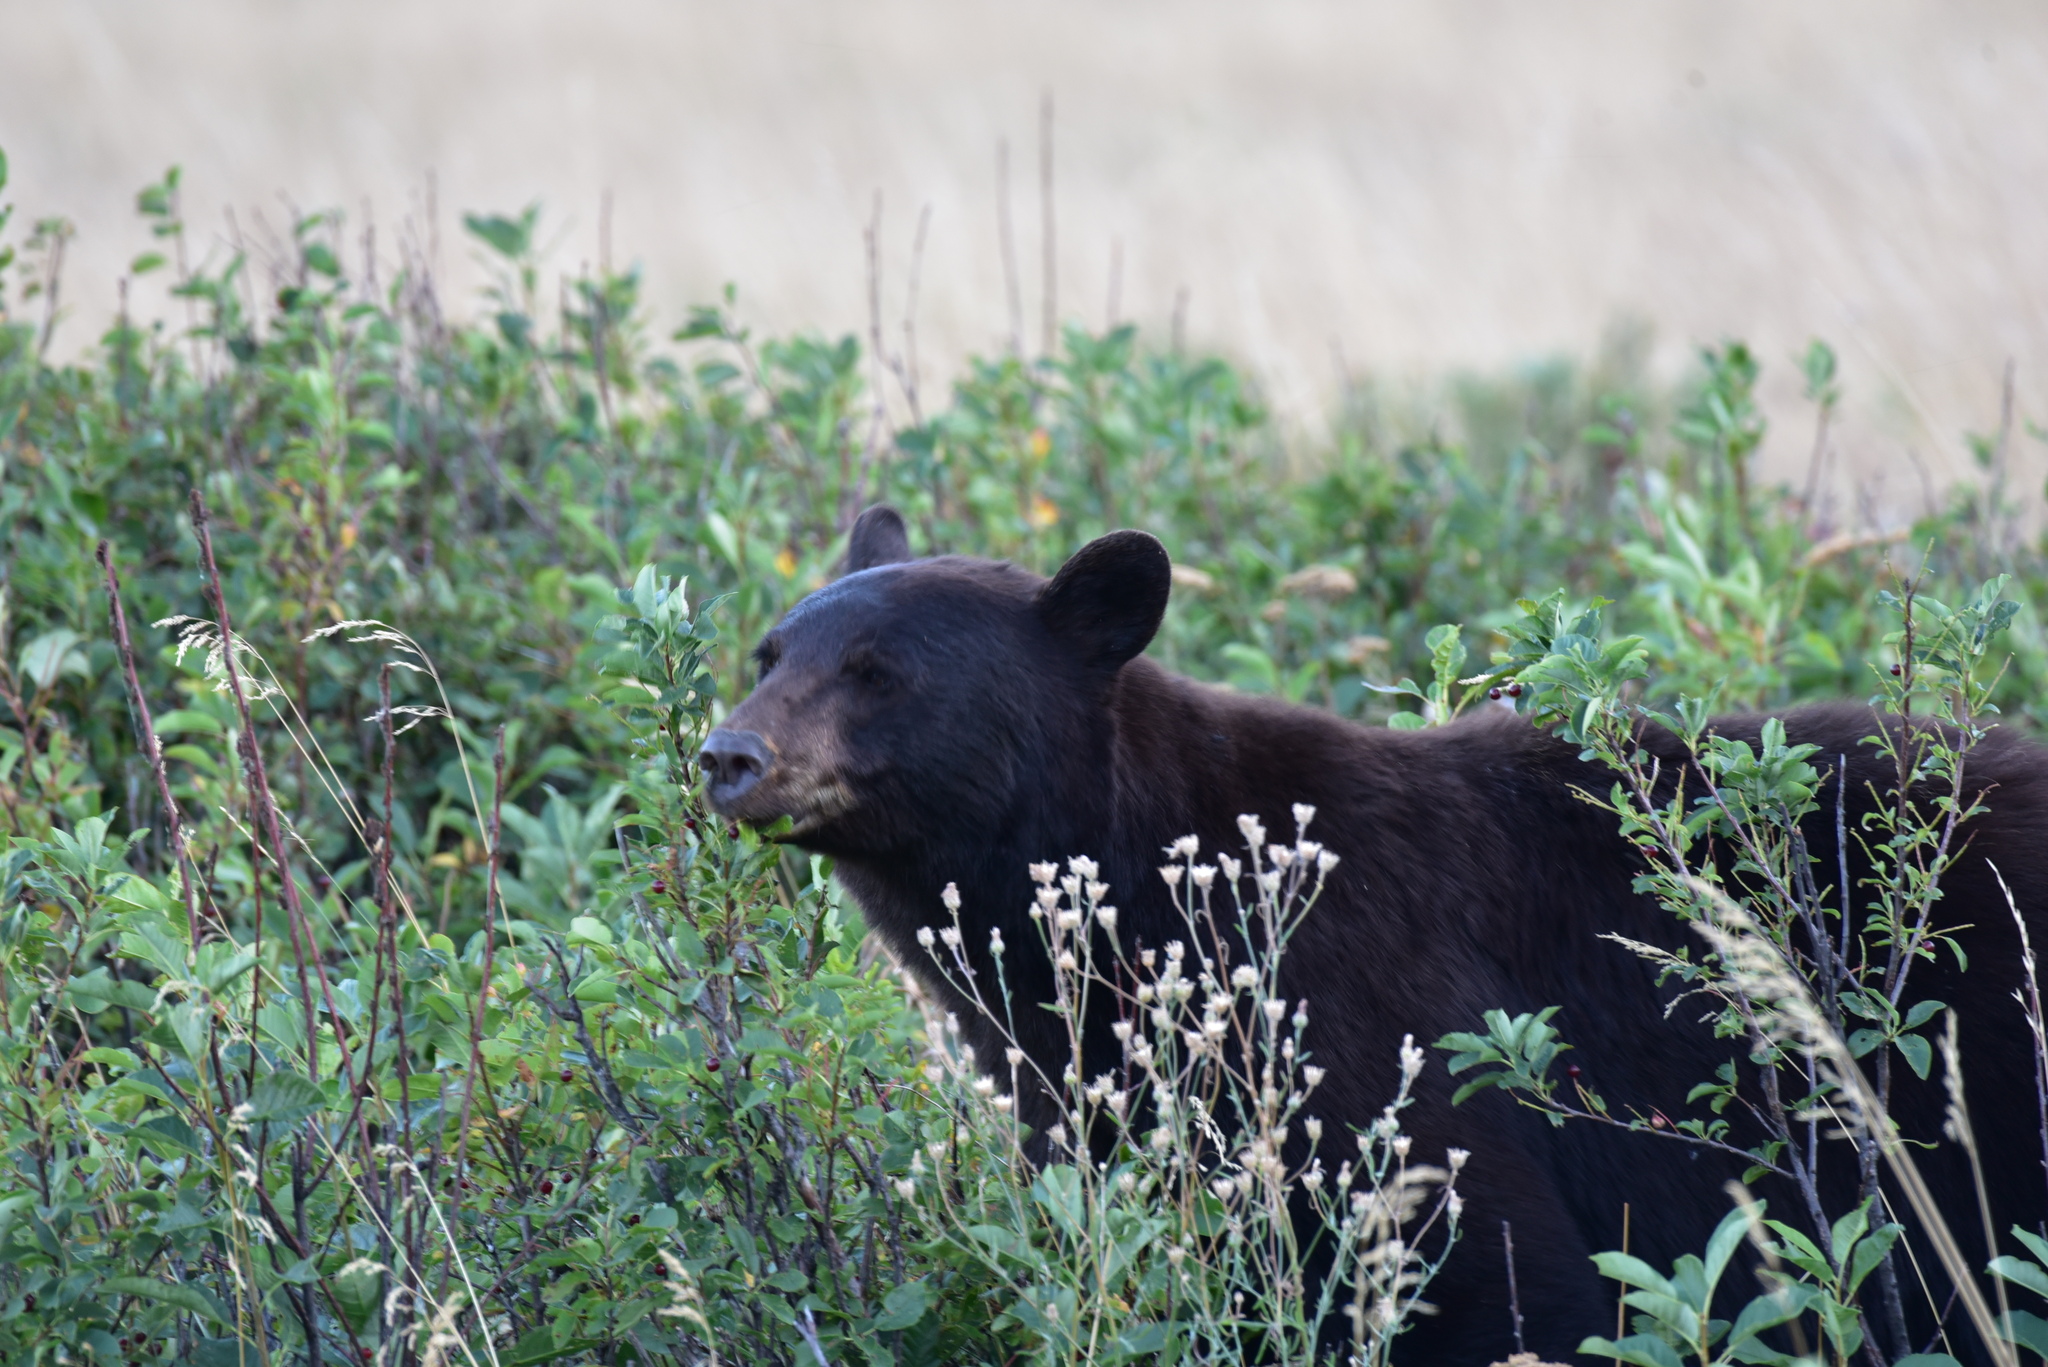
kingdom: Animalia
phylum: Chordata
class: Mammalia
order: Carnivora
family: Ursidae
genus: Ursus
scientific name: Ursus americanus
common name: American black bear
